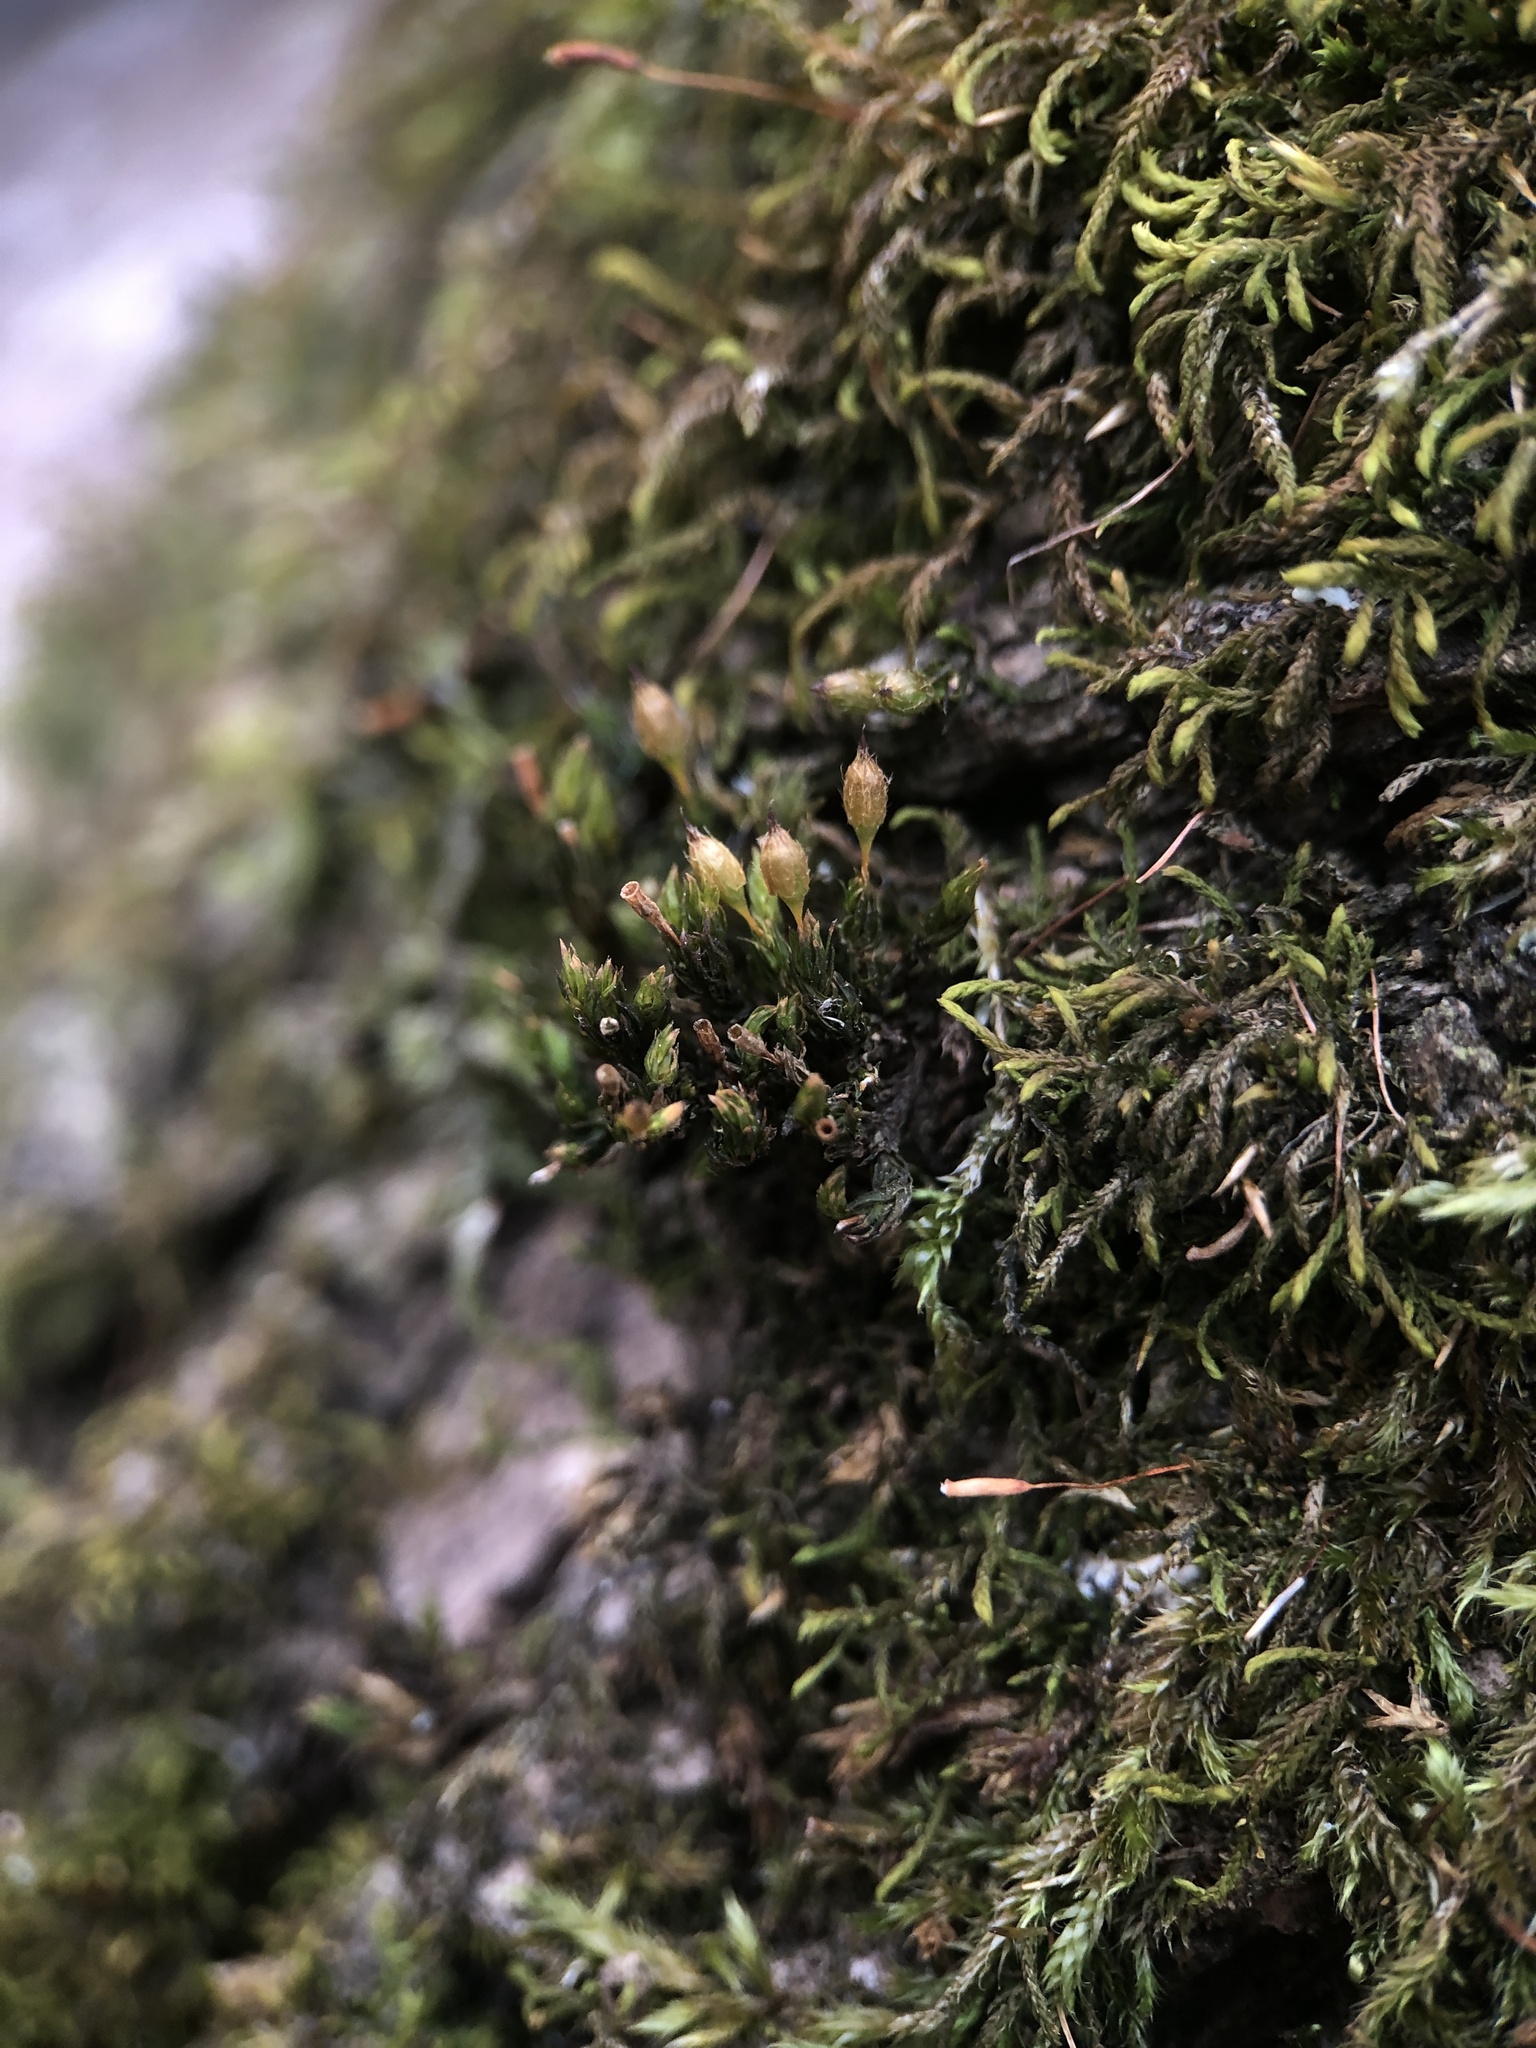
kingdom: Plantae
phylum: Bryophyta
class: Bryopsida
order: Orthotrichales
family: Orthotrichaceae
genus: Orthotrichum
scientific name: Orthotrichum anomalum
